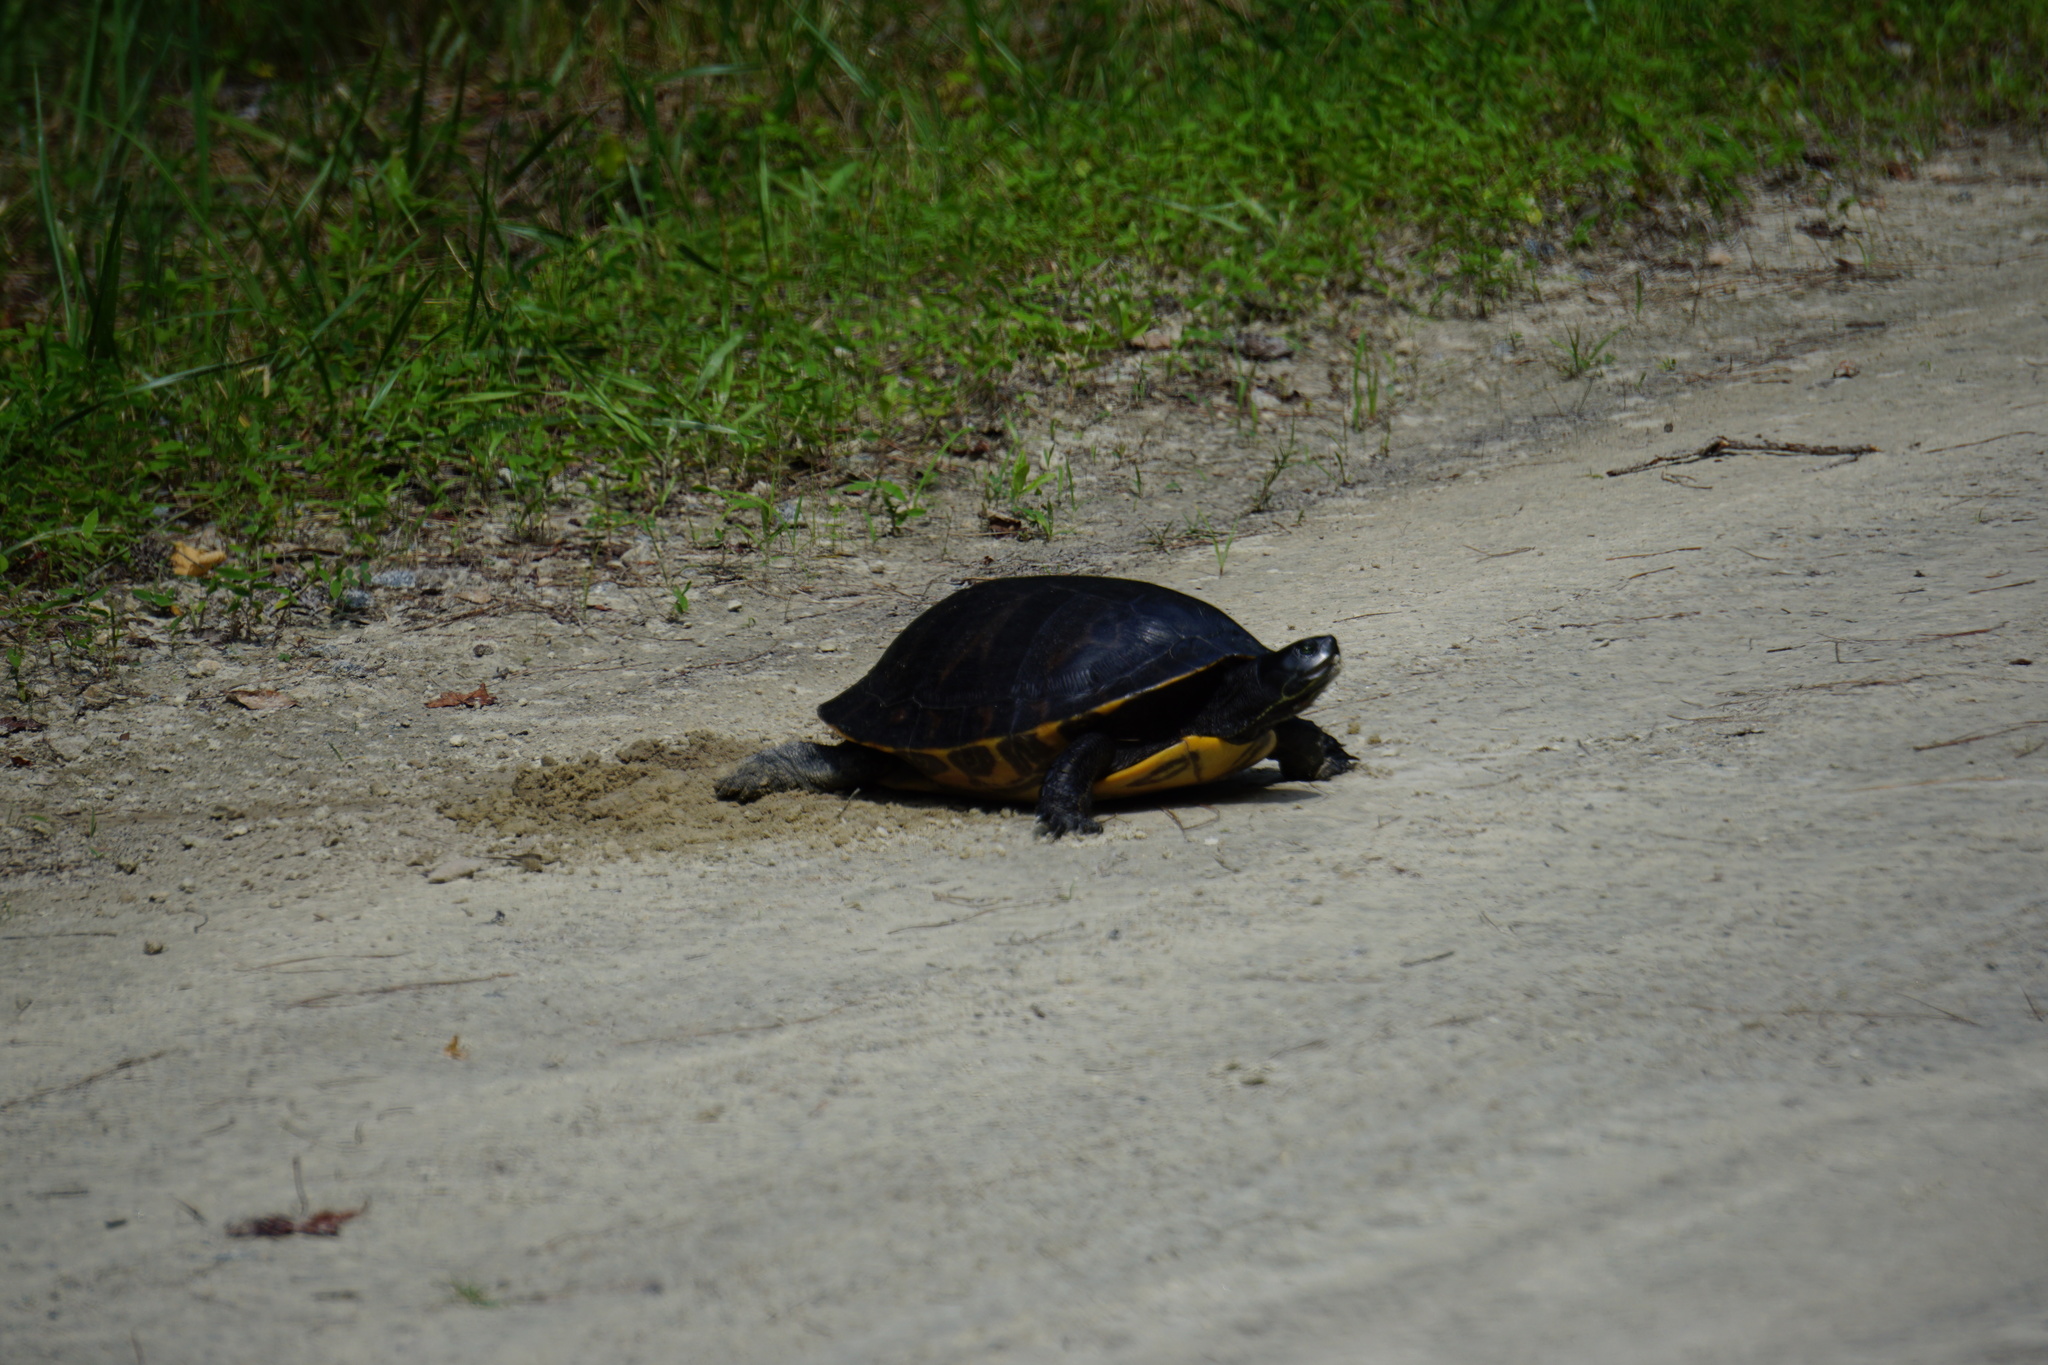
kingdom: Animalia
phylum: Chordata
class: Testudines
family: Emydidae
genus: Trachemys
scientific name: Trachemys scripta
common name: Slider
